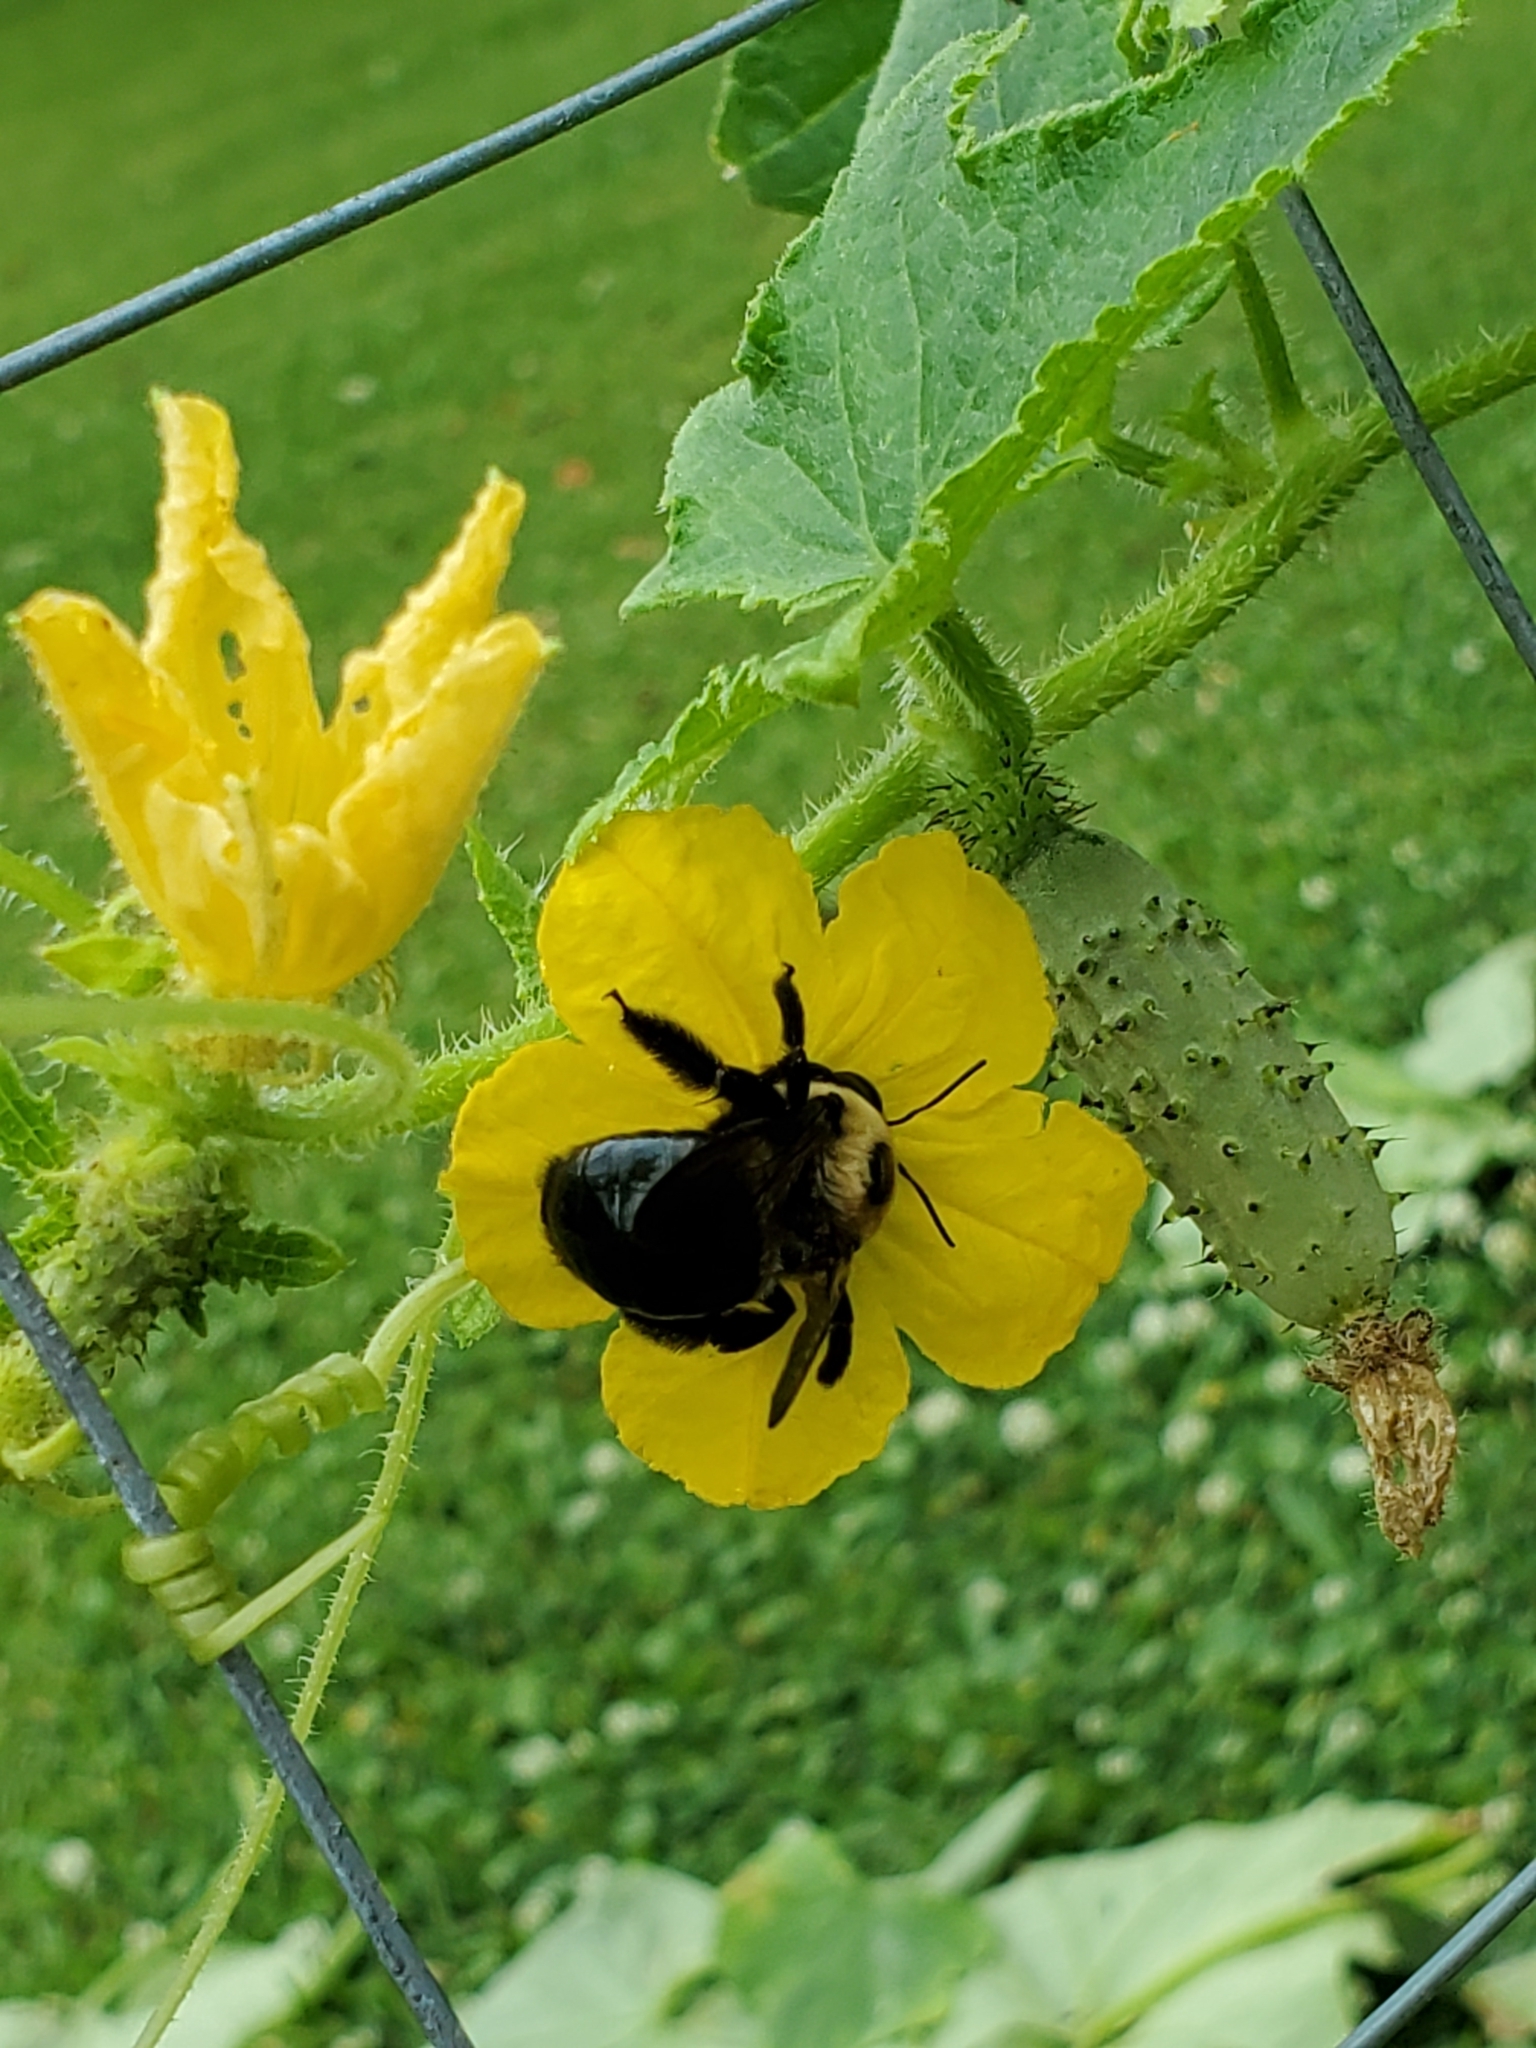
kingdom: Animalia
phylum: Arthropoda
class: Insecta
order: Hymenoptera
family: Apidae
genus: Xylocopa
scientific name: Xylocopa virginica
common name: Carpenter bee
